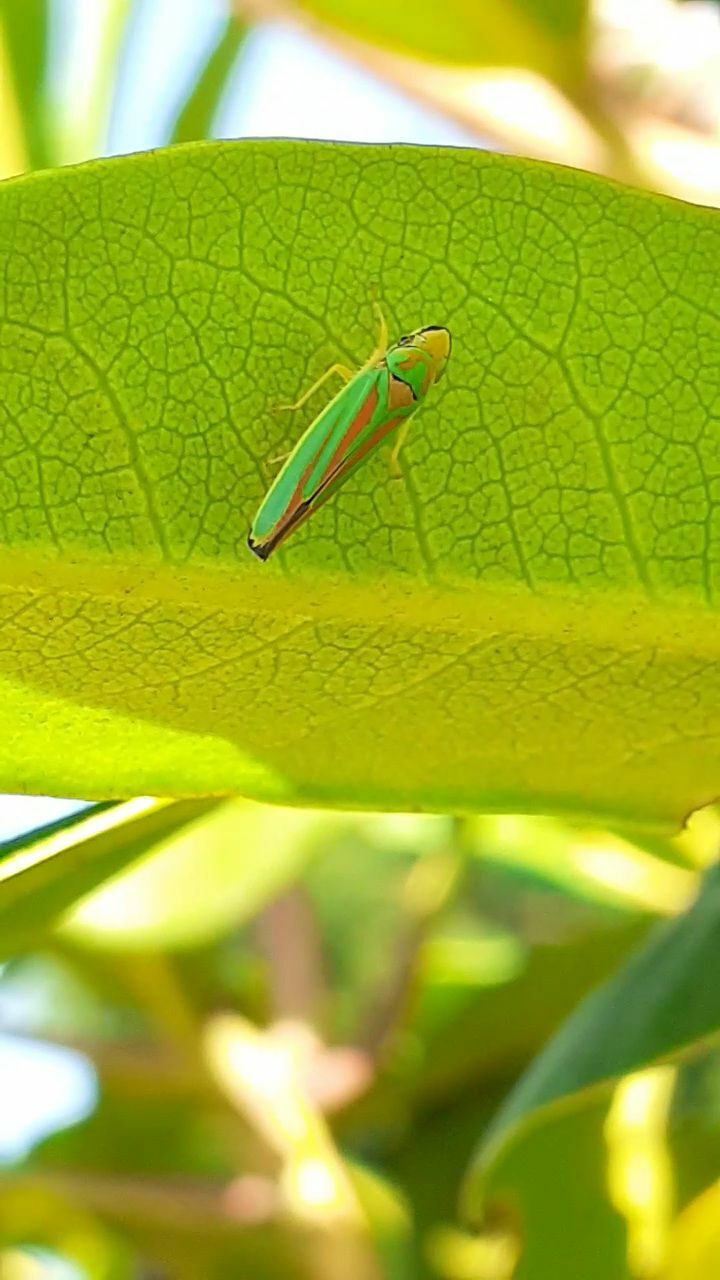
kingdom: Animalia
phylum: Arthropoda
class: Insecta
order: Hemiptera
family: Cicadellidae
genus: Graphocephala
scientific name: Graphocephala fennahi
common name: Rhododendron leafhopper
